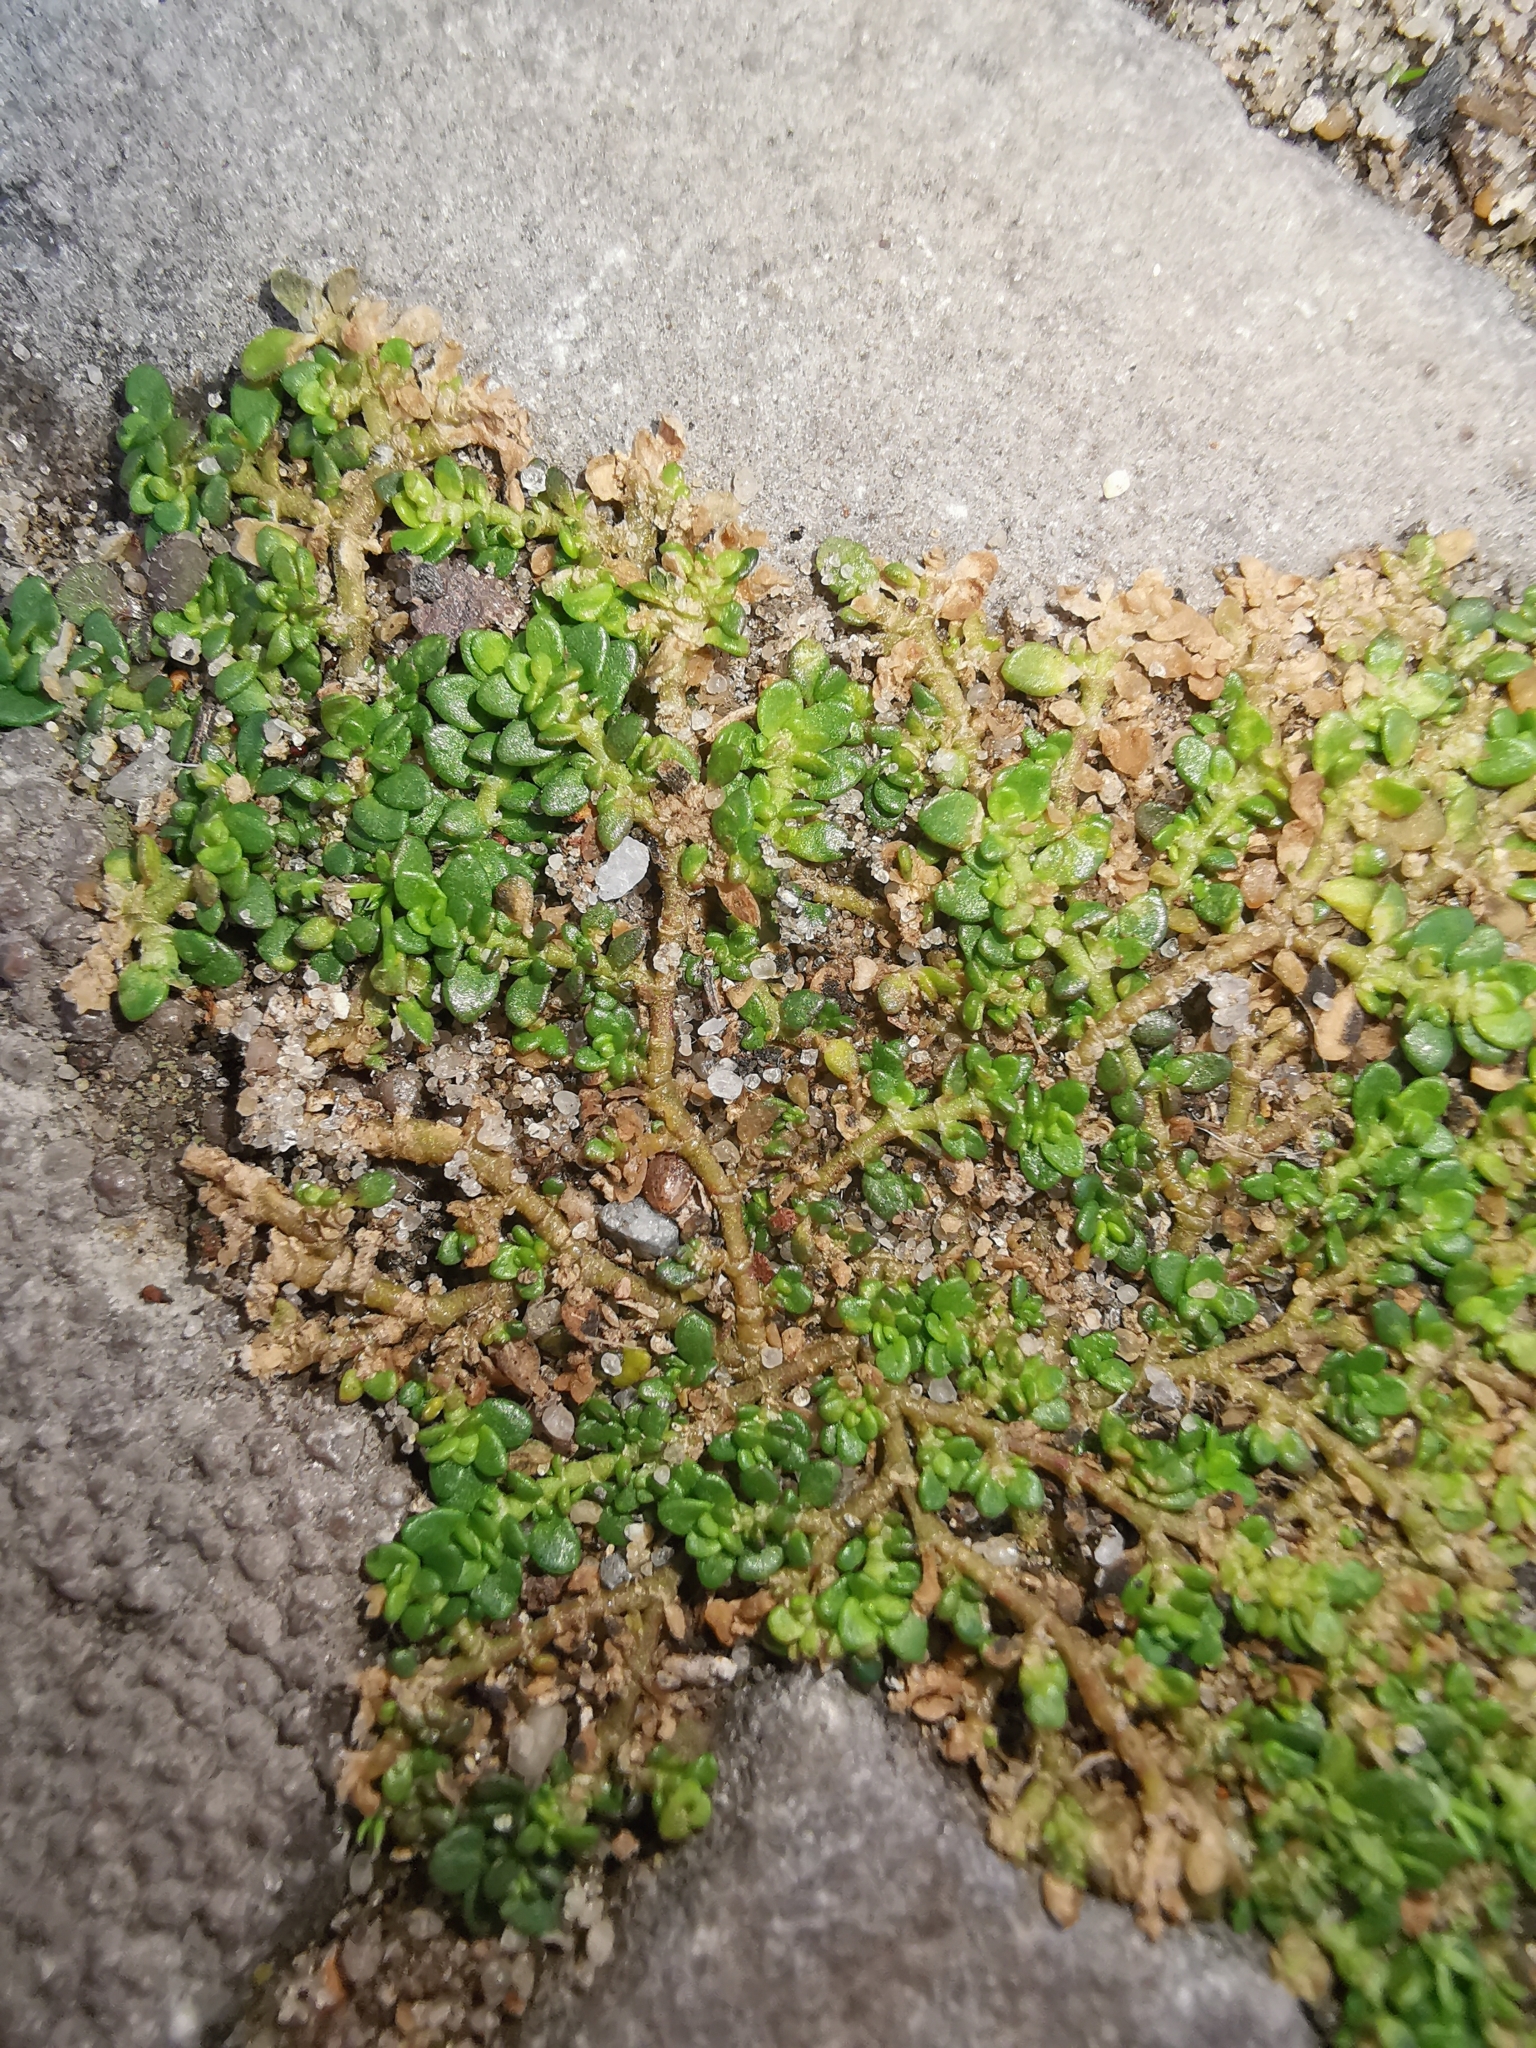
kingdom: Plantae
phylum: Tracheophyta
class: Magnoliopsida
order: Caryophyllales
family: Caryophyllaceae
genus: Herniaria
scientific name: Herniaria glabra
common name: Smooth rupturewort
